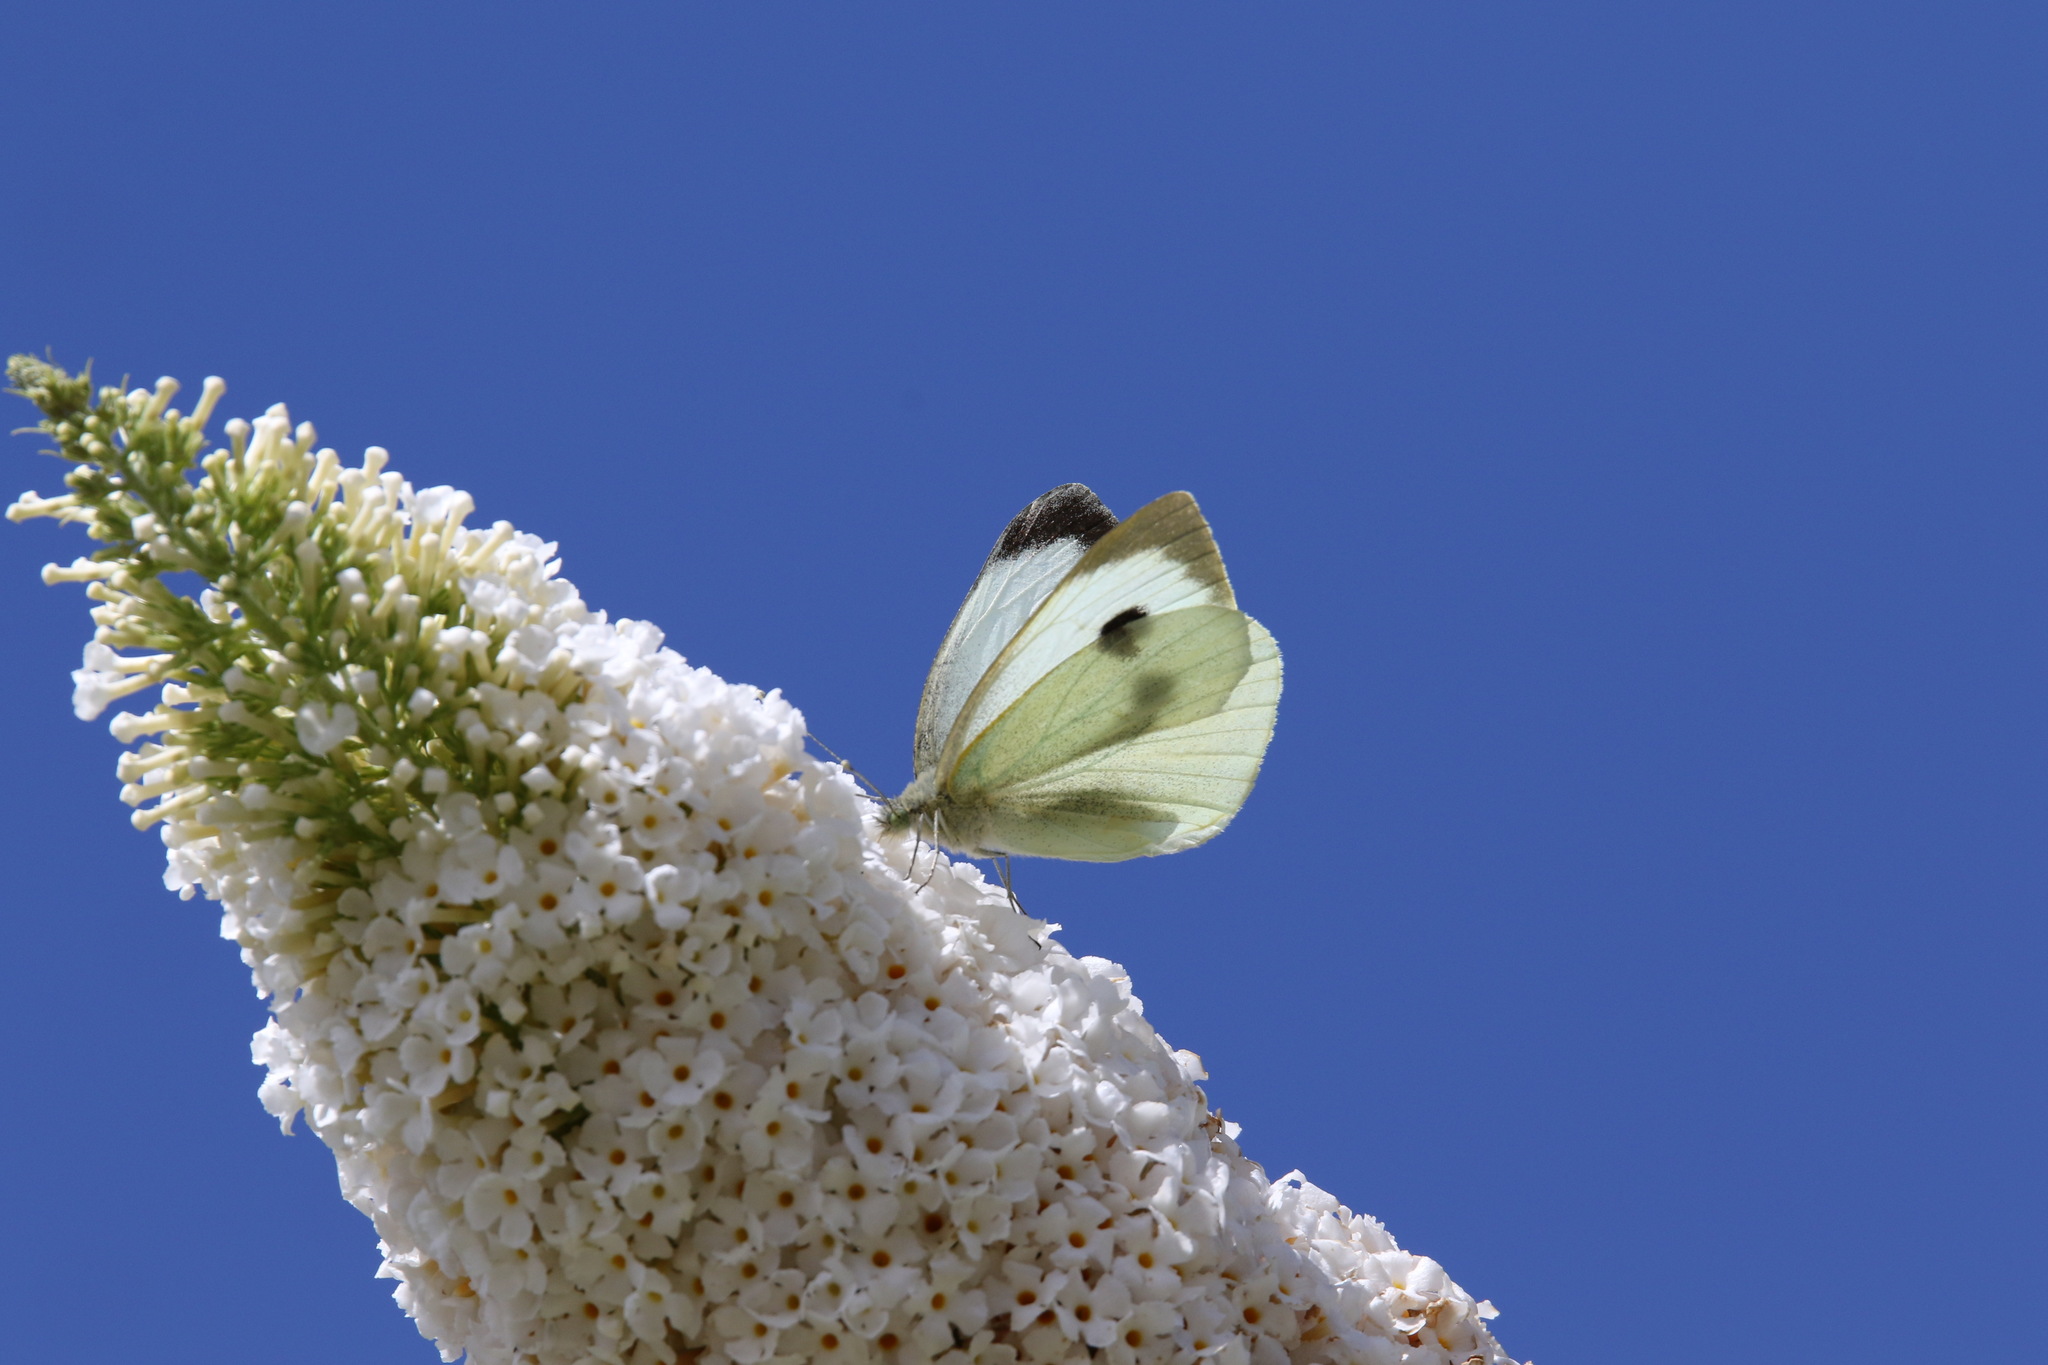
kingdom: Animalia
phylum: Arthropoda
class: Insecta
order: Lepidoptera
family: Pieridae
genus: Pieris
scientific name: Pieris brassicae
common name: Large white
